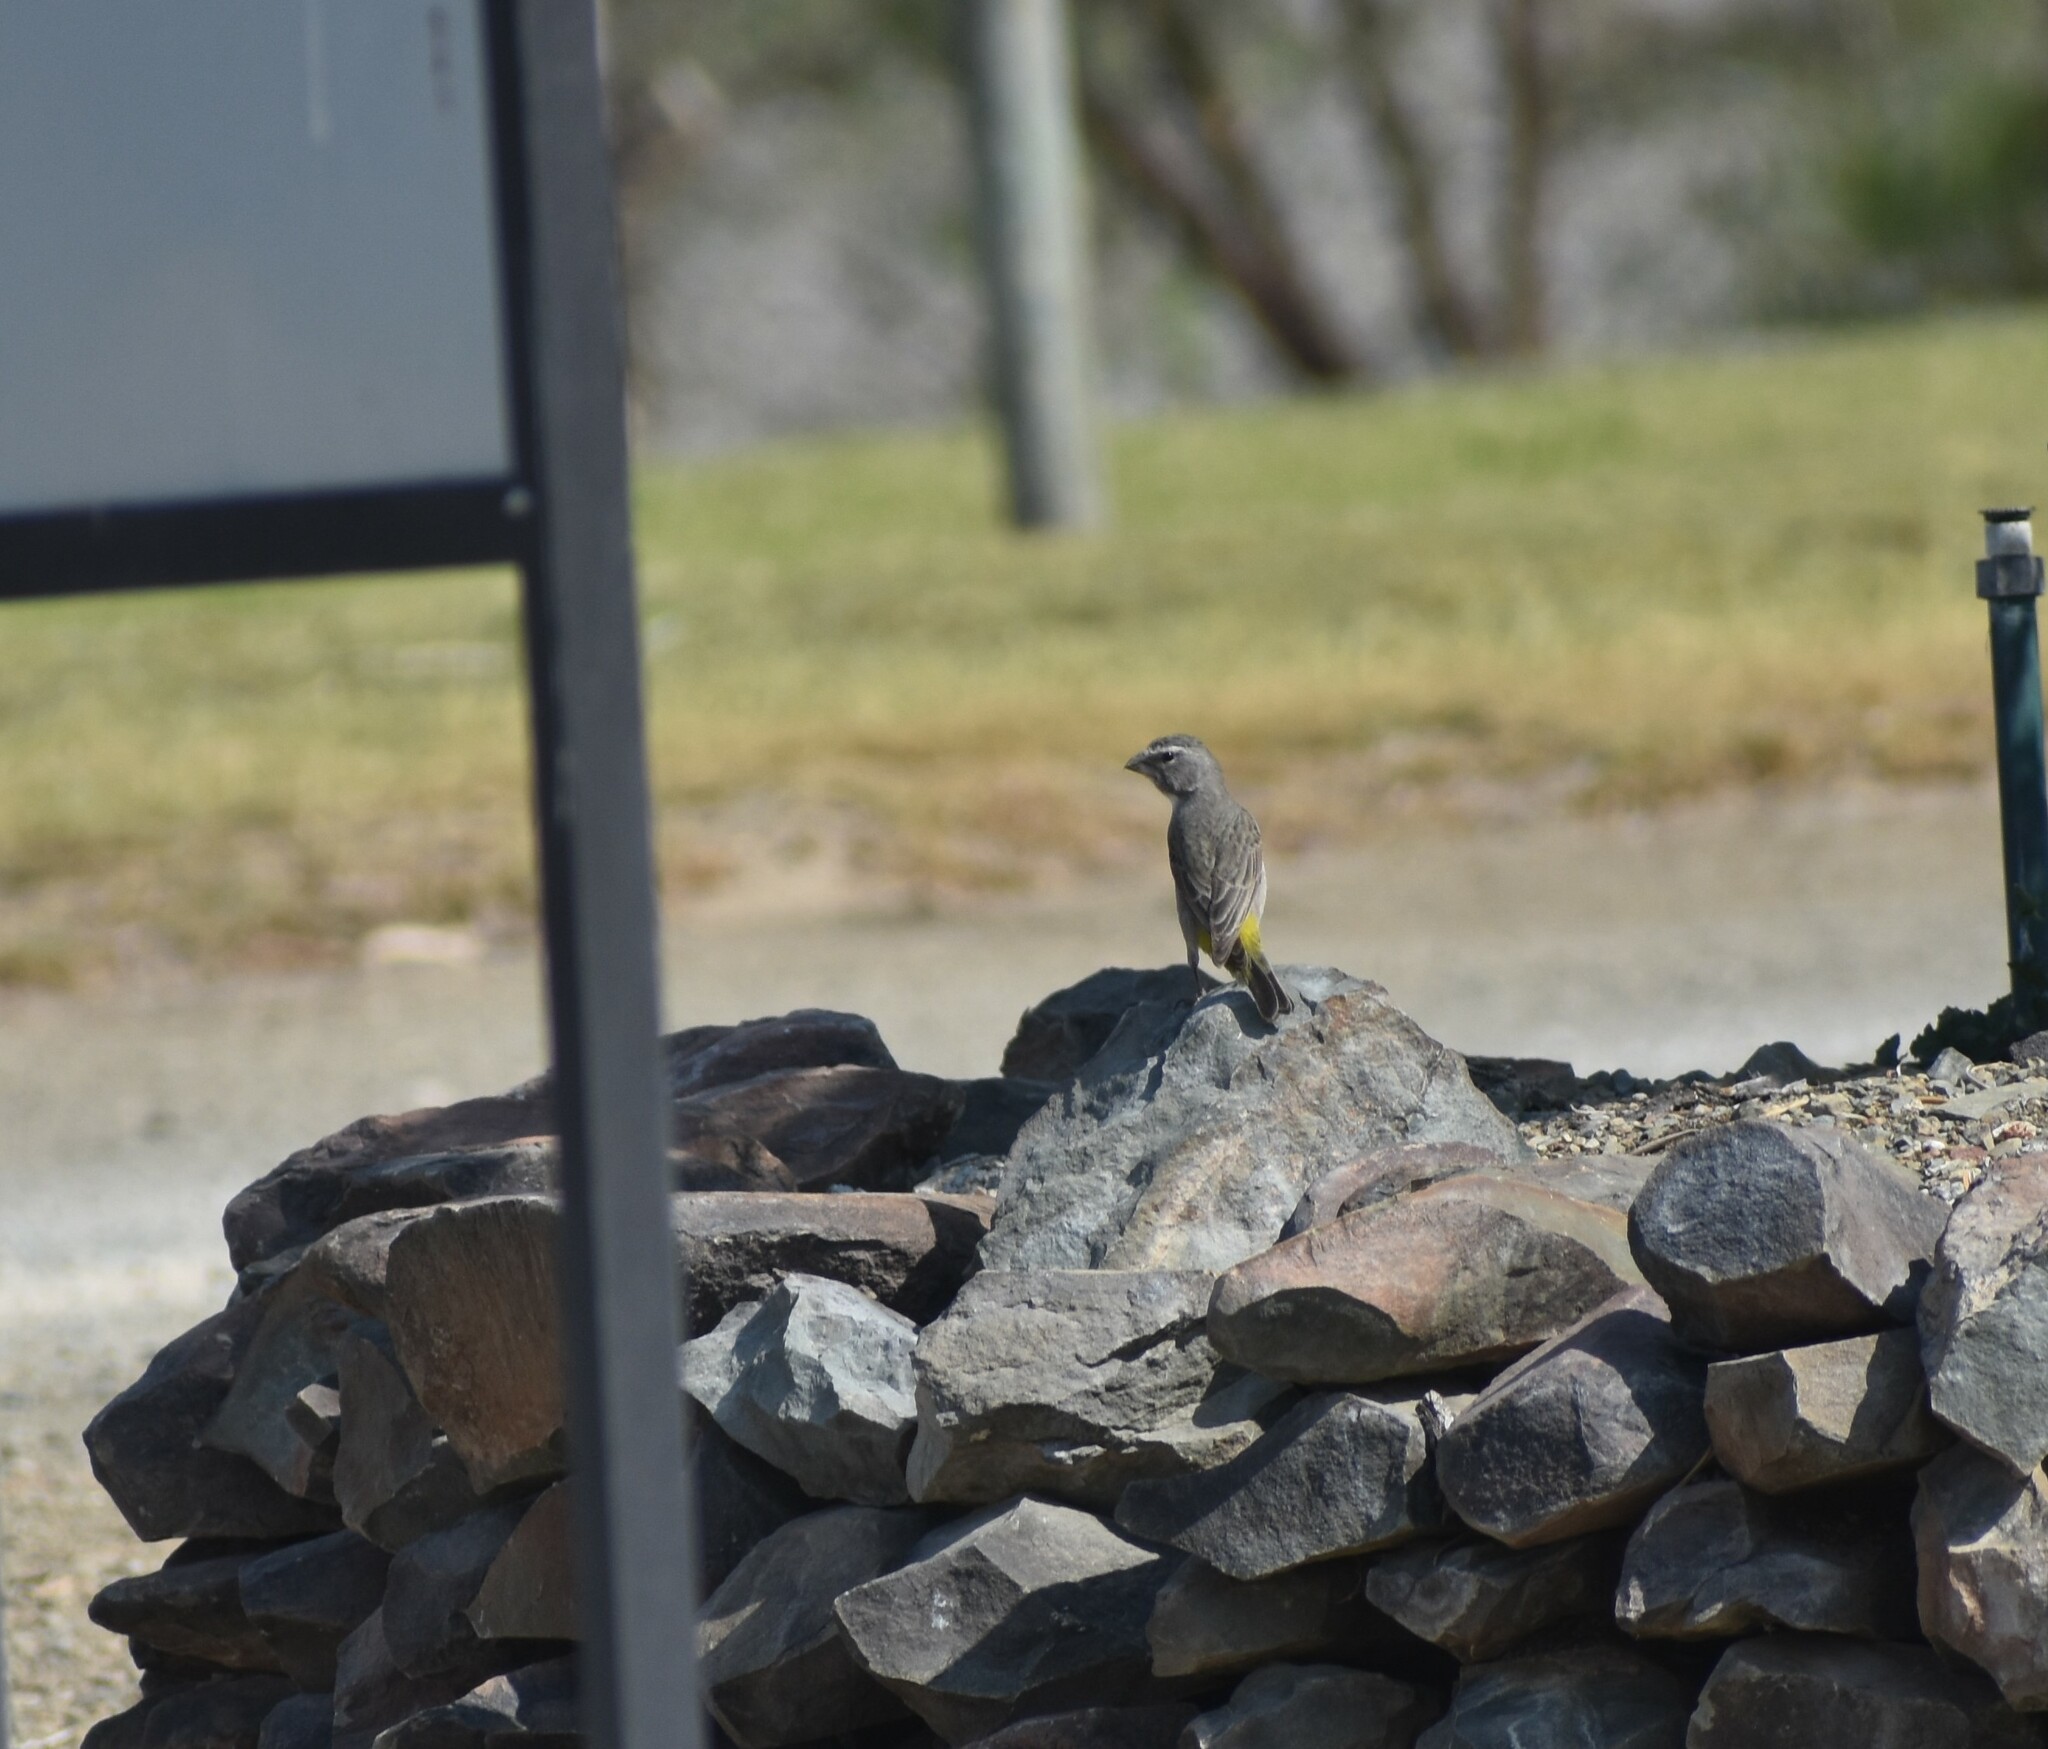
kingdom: Animalia
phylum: Chordata
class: Aves
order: Passeriformes
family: Fringillidae
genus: Crithagra
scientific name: Crithagra albogularis
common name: White-throated canary
